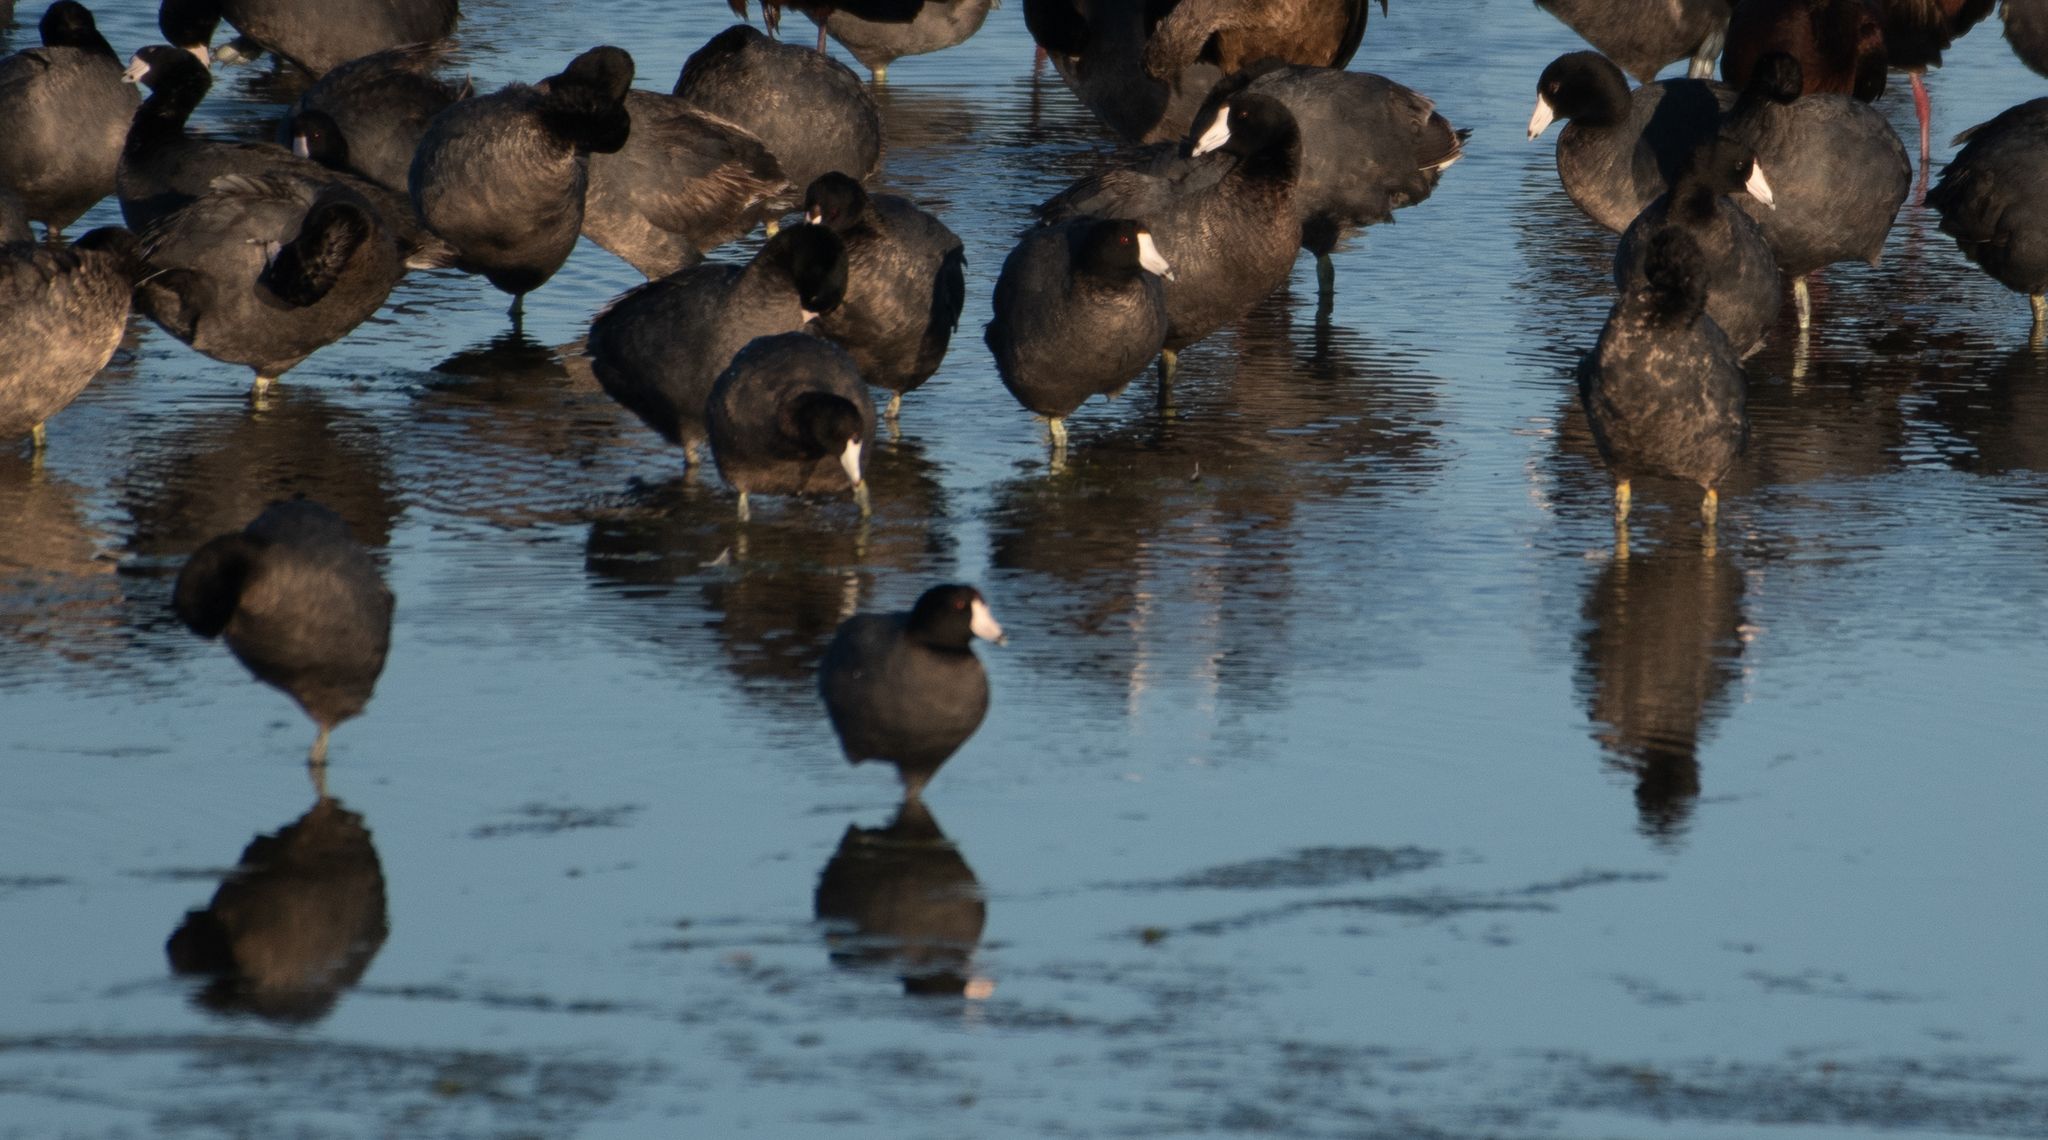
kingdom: Animalia
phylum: Chordata
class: Aves
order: Gruiformes
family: Rallidae
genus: Fulica
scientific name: Fulica americana
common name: American coot
